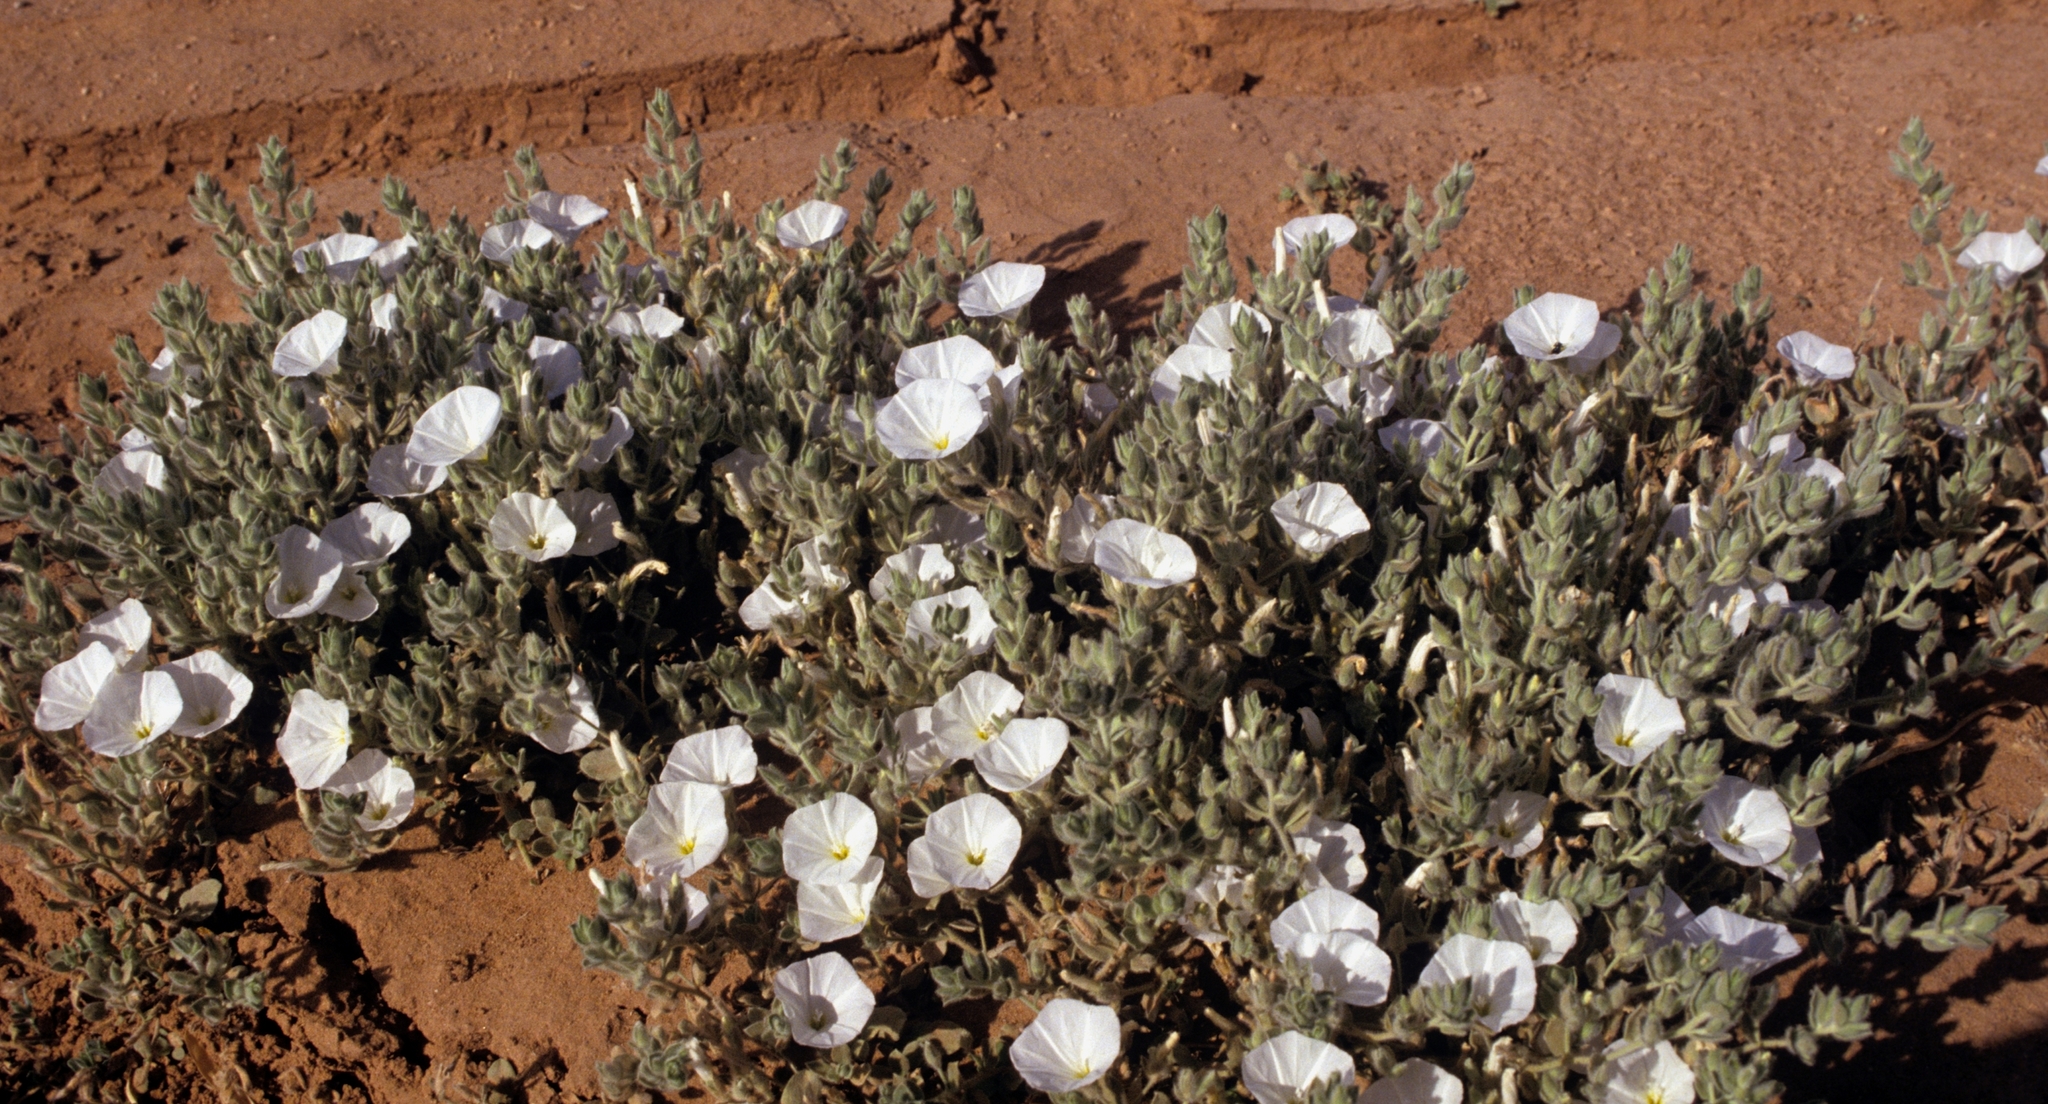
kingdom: Plantae
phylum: Tracheophyta
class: Magnoliopsida
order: Solanales
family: Convolvulaceae
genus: Convolvulus
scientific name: Convolvulus supinus
